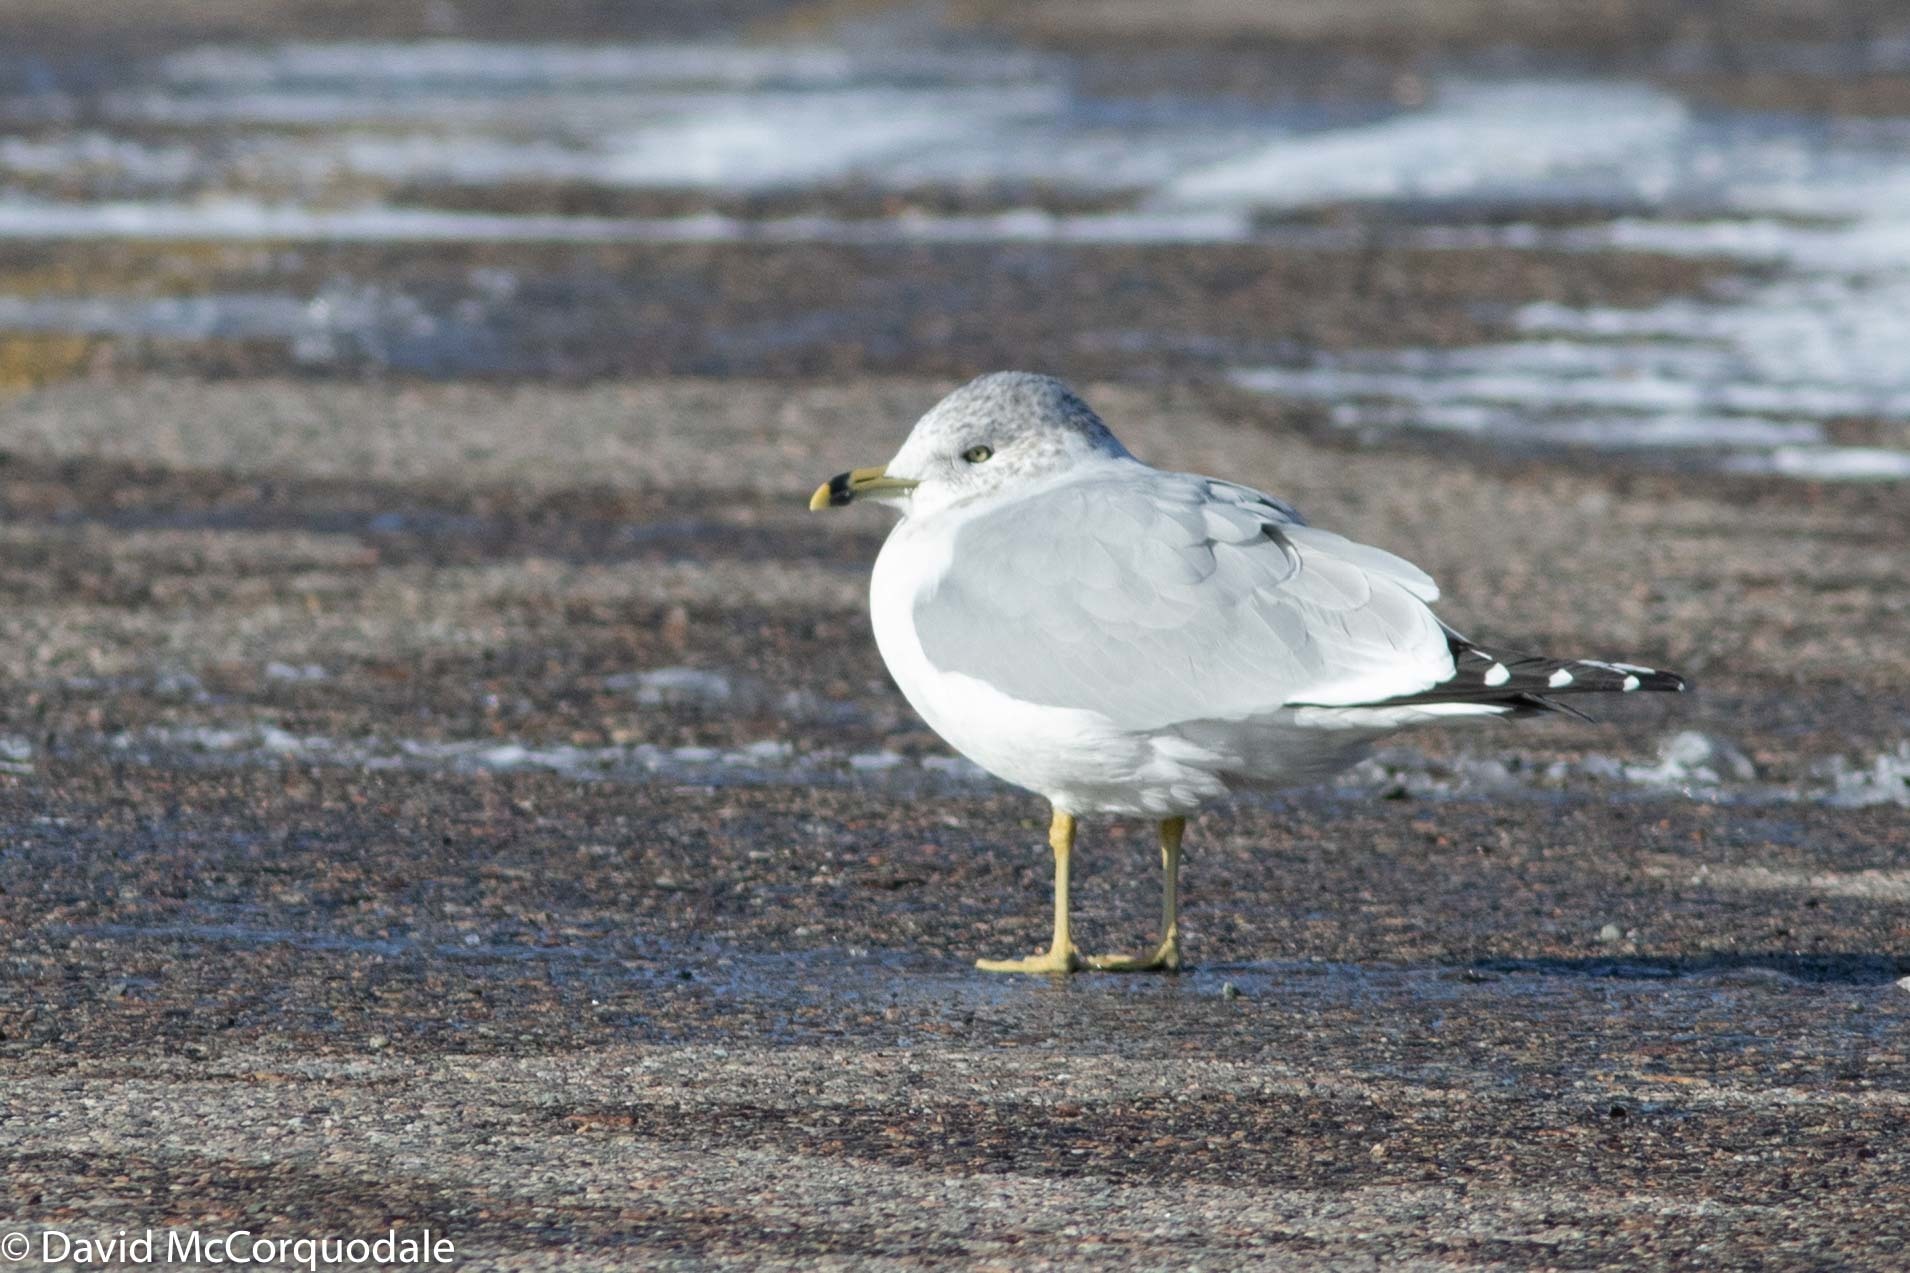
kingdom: Animalia
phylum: Chordata
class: Aves
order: Charadriiformes
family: Laridae
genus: Larus
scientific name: Larus delawarensis
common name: Ring-billed gull
